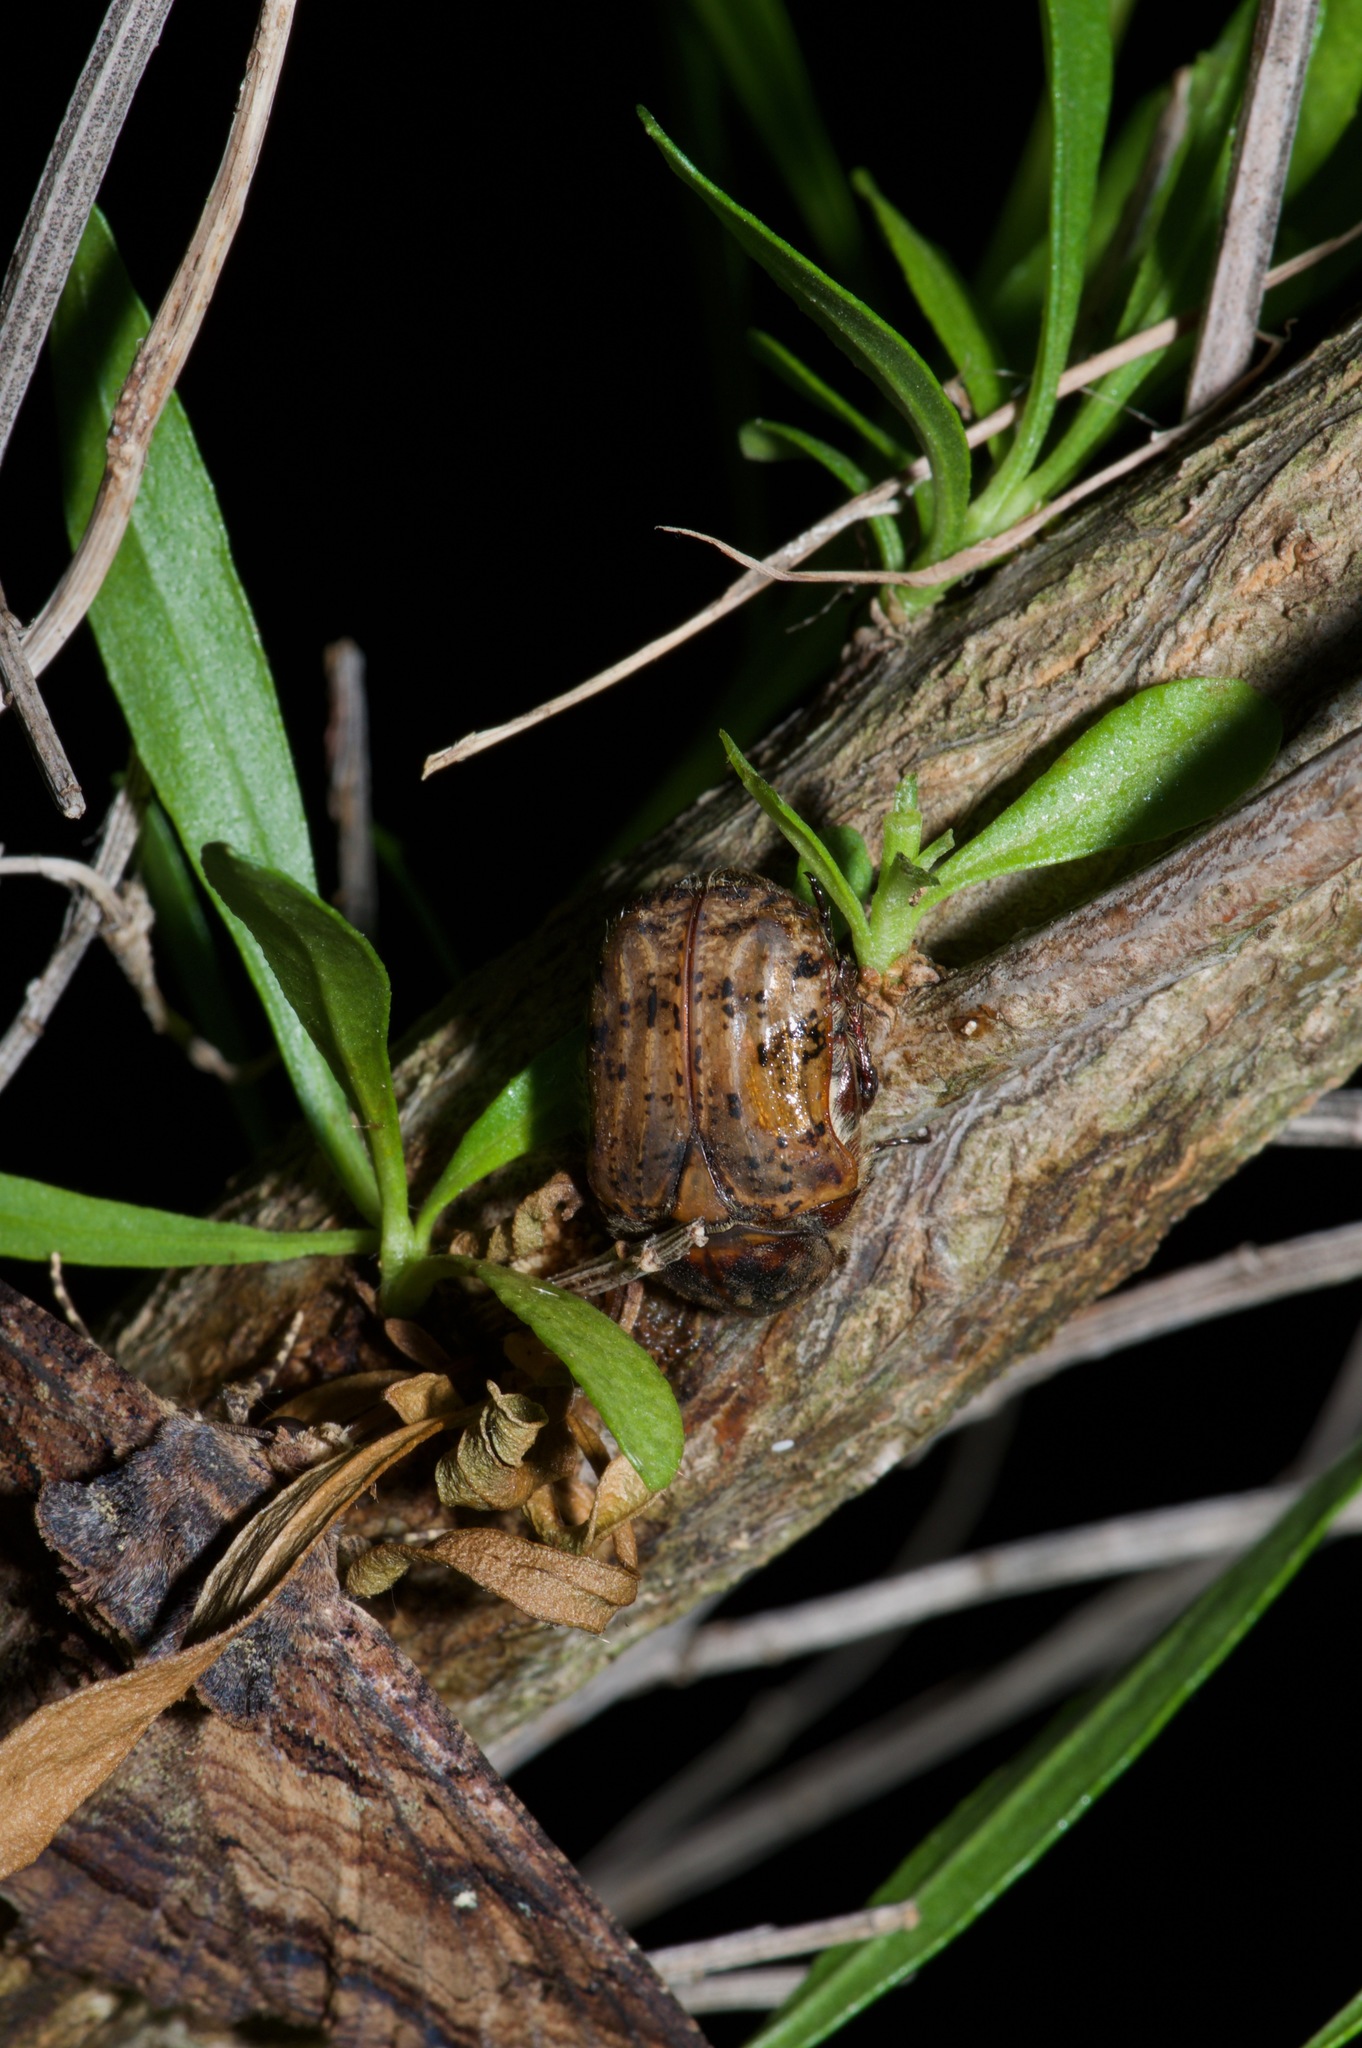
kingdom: Animalia
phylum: Arthropoda
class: Insecta
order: Coleoptera
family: Scarabaeidae
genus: Euphoria
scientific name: Euphoria inda
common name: Bumble flower beetle
